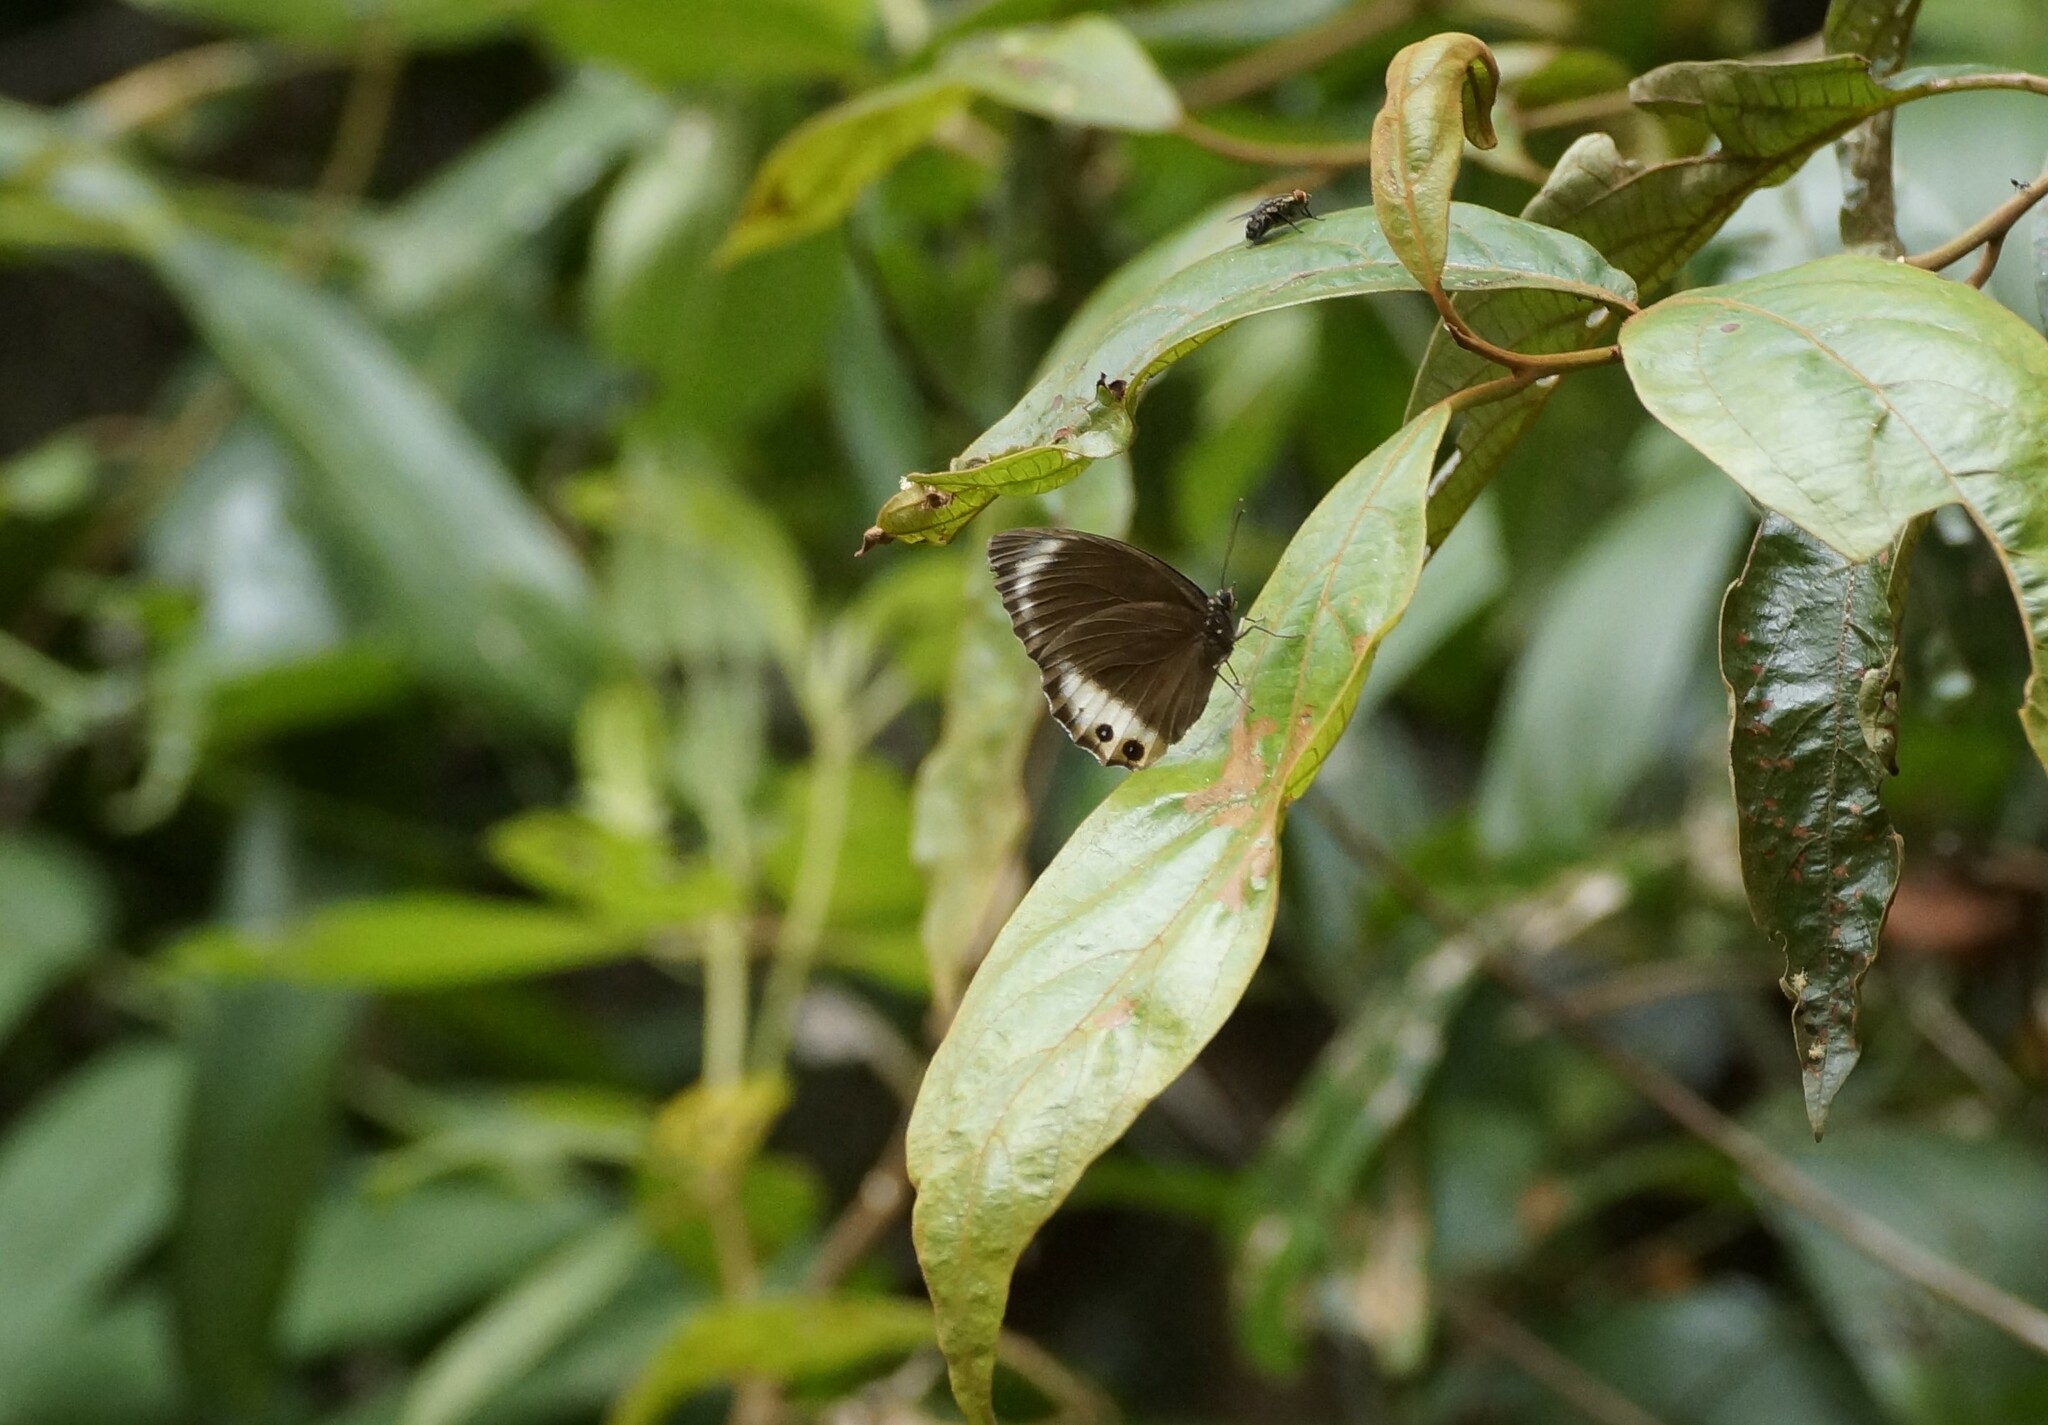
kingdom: Animalia
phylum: Arthropoda
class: Insecta
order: Lepidoptera
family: Nymphalidae
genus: Elymnias
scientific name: Elymnias agondas
